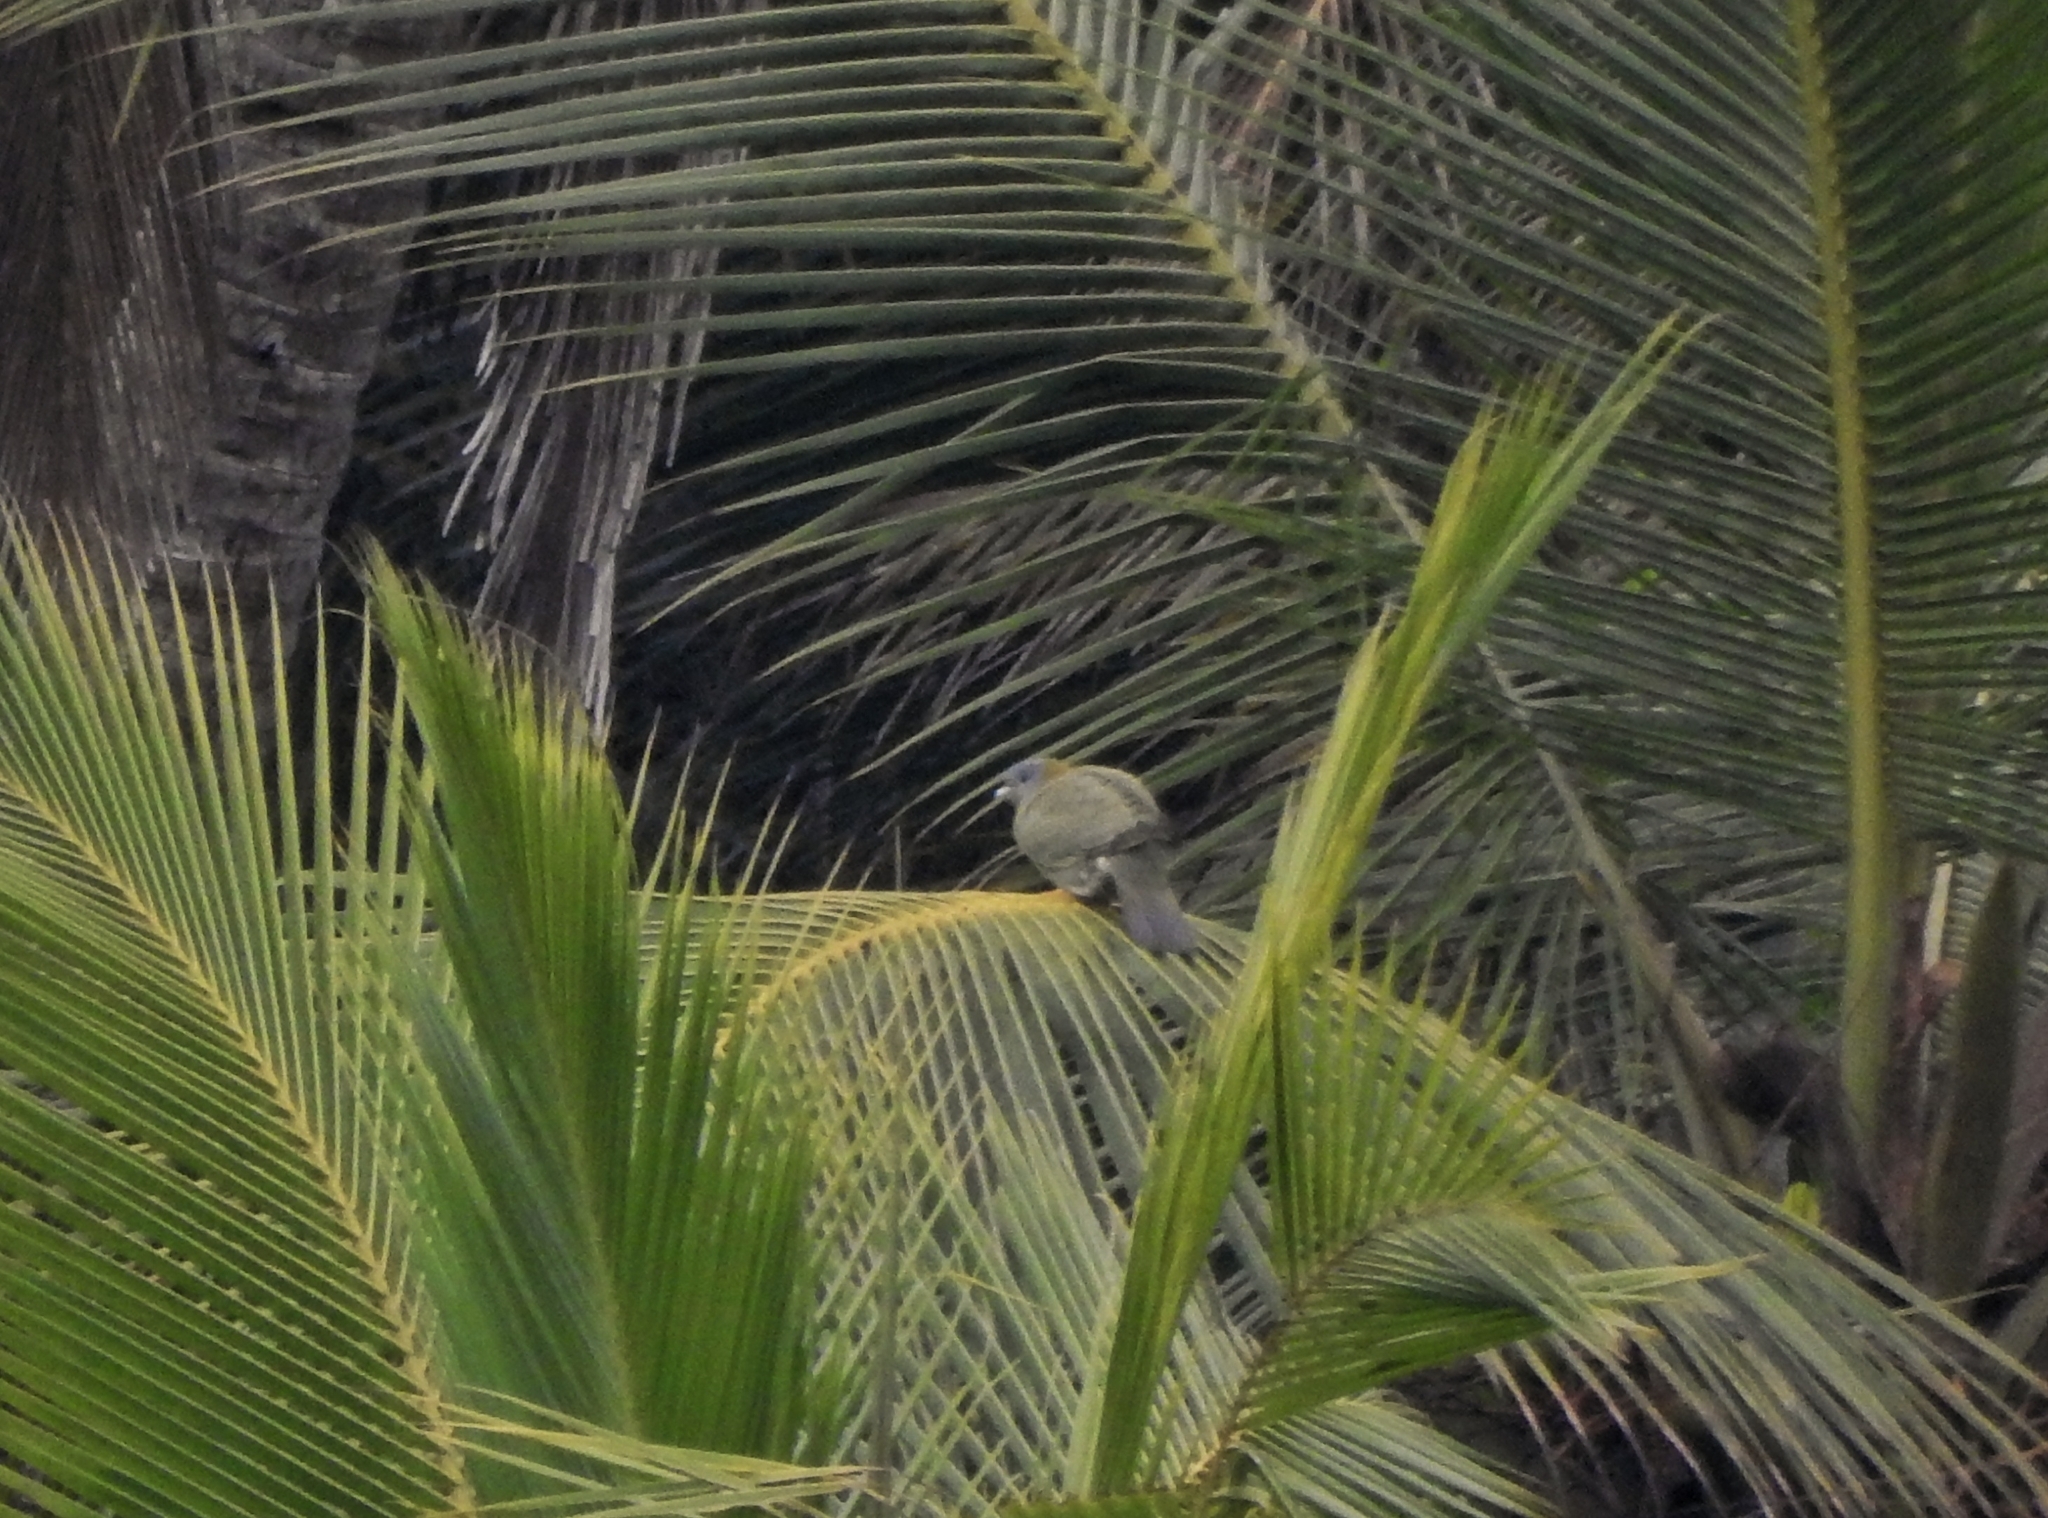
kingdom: Animalia
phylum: Chordata
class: Aves
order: Columbiformes
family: Columbidae
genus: Treron
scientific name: Treron phoenicopterus
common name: Yellow-footed green pigeon
